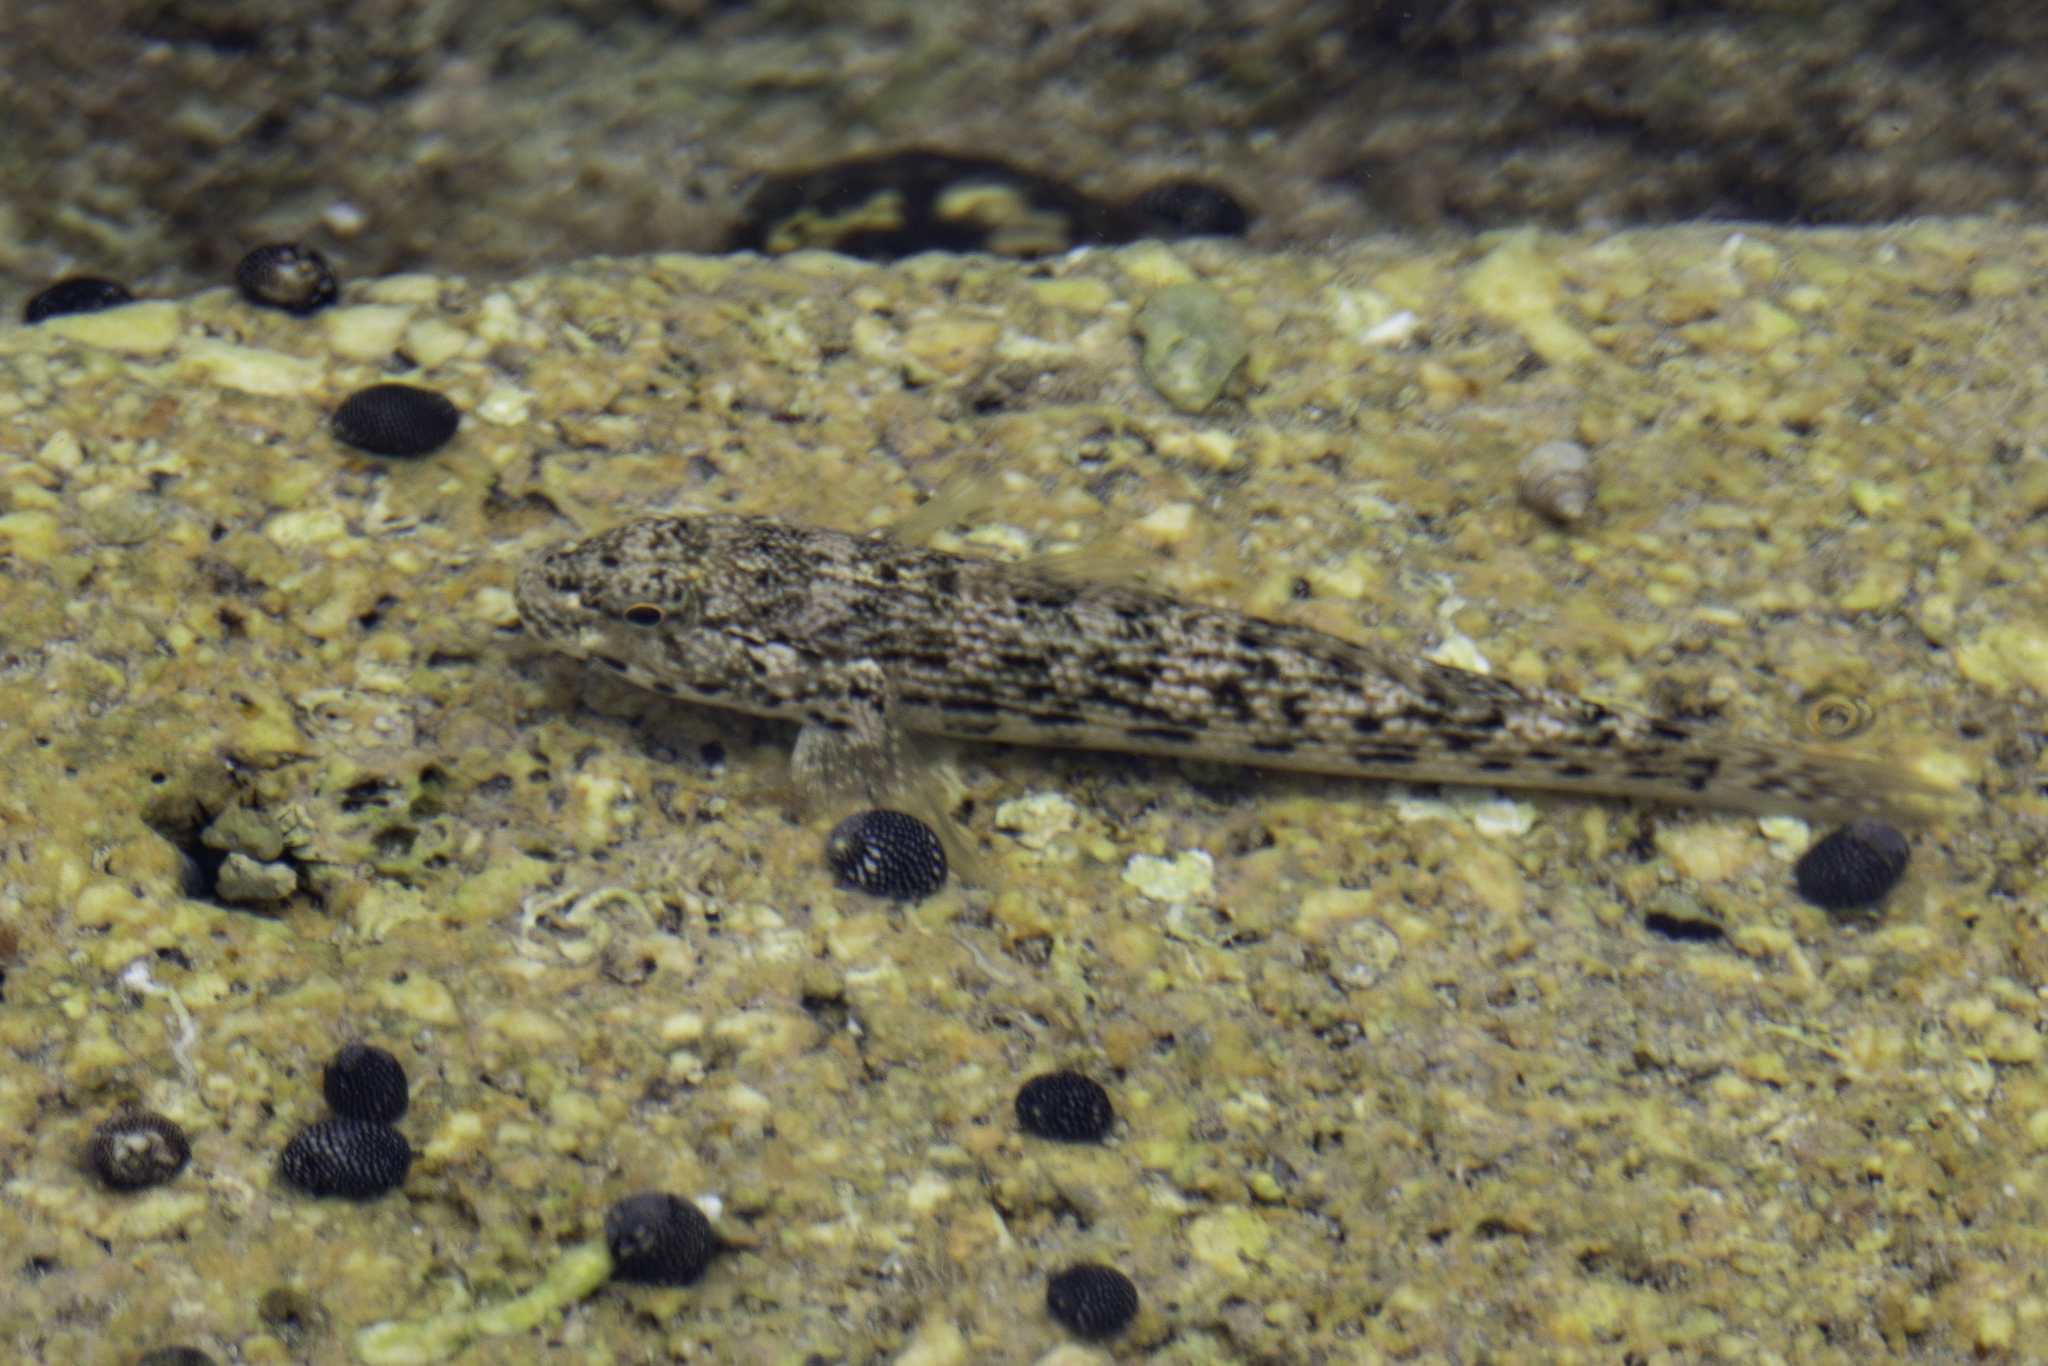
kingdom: Animalia
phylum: Chordata
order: Perciformes
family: Gobiidae
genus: Bathygobius
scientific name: Bathygobius antilliensis
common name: Antilles frillfin
